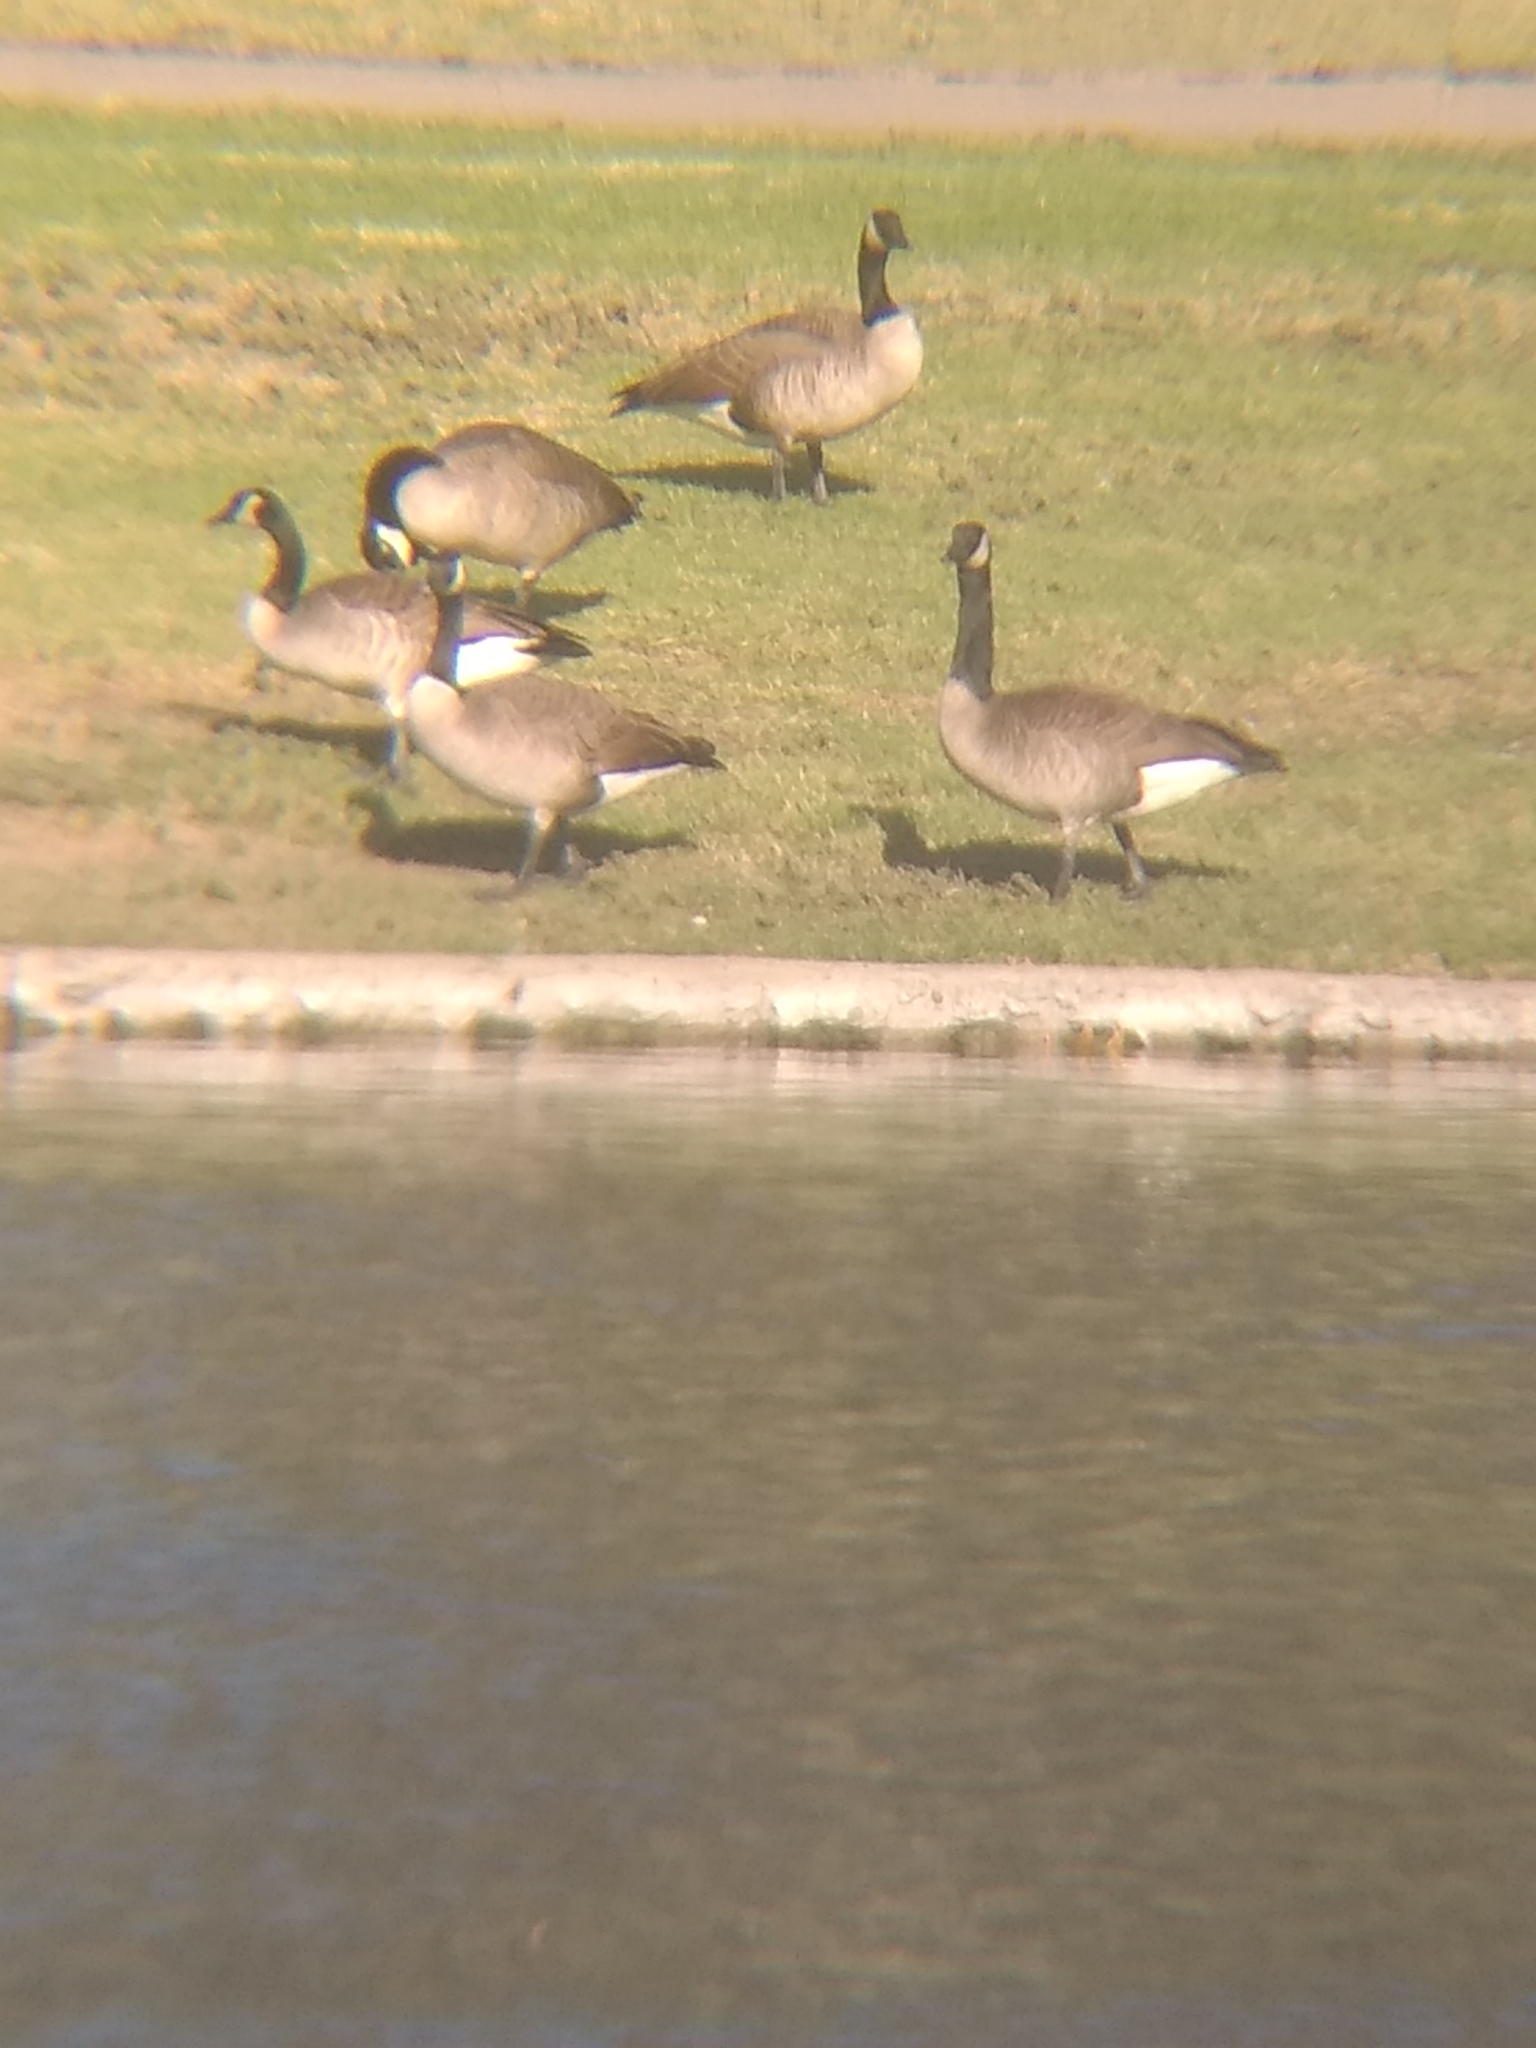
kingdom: Animalia
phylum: Chordata
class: Aves
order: Anseriformes
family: Anatidae
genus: Branta
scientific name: Branta canadensis
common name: Canada goose
